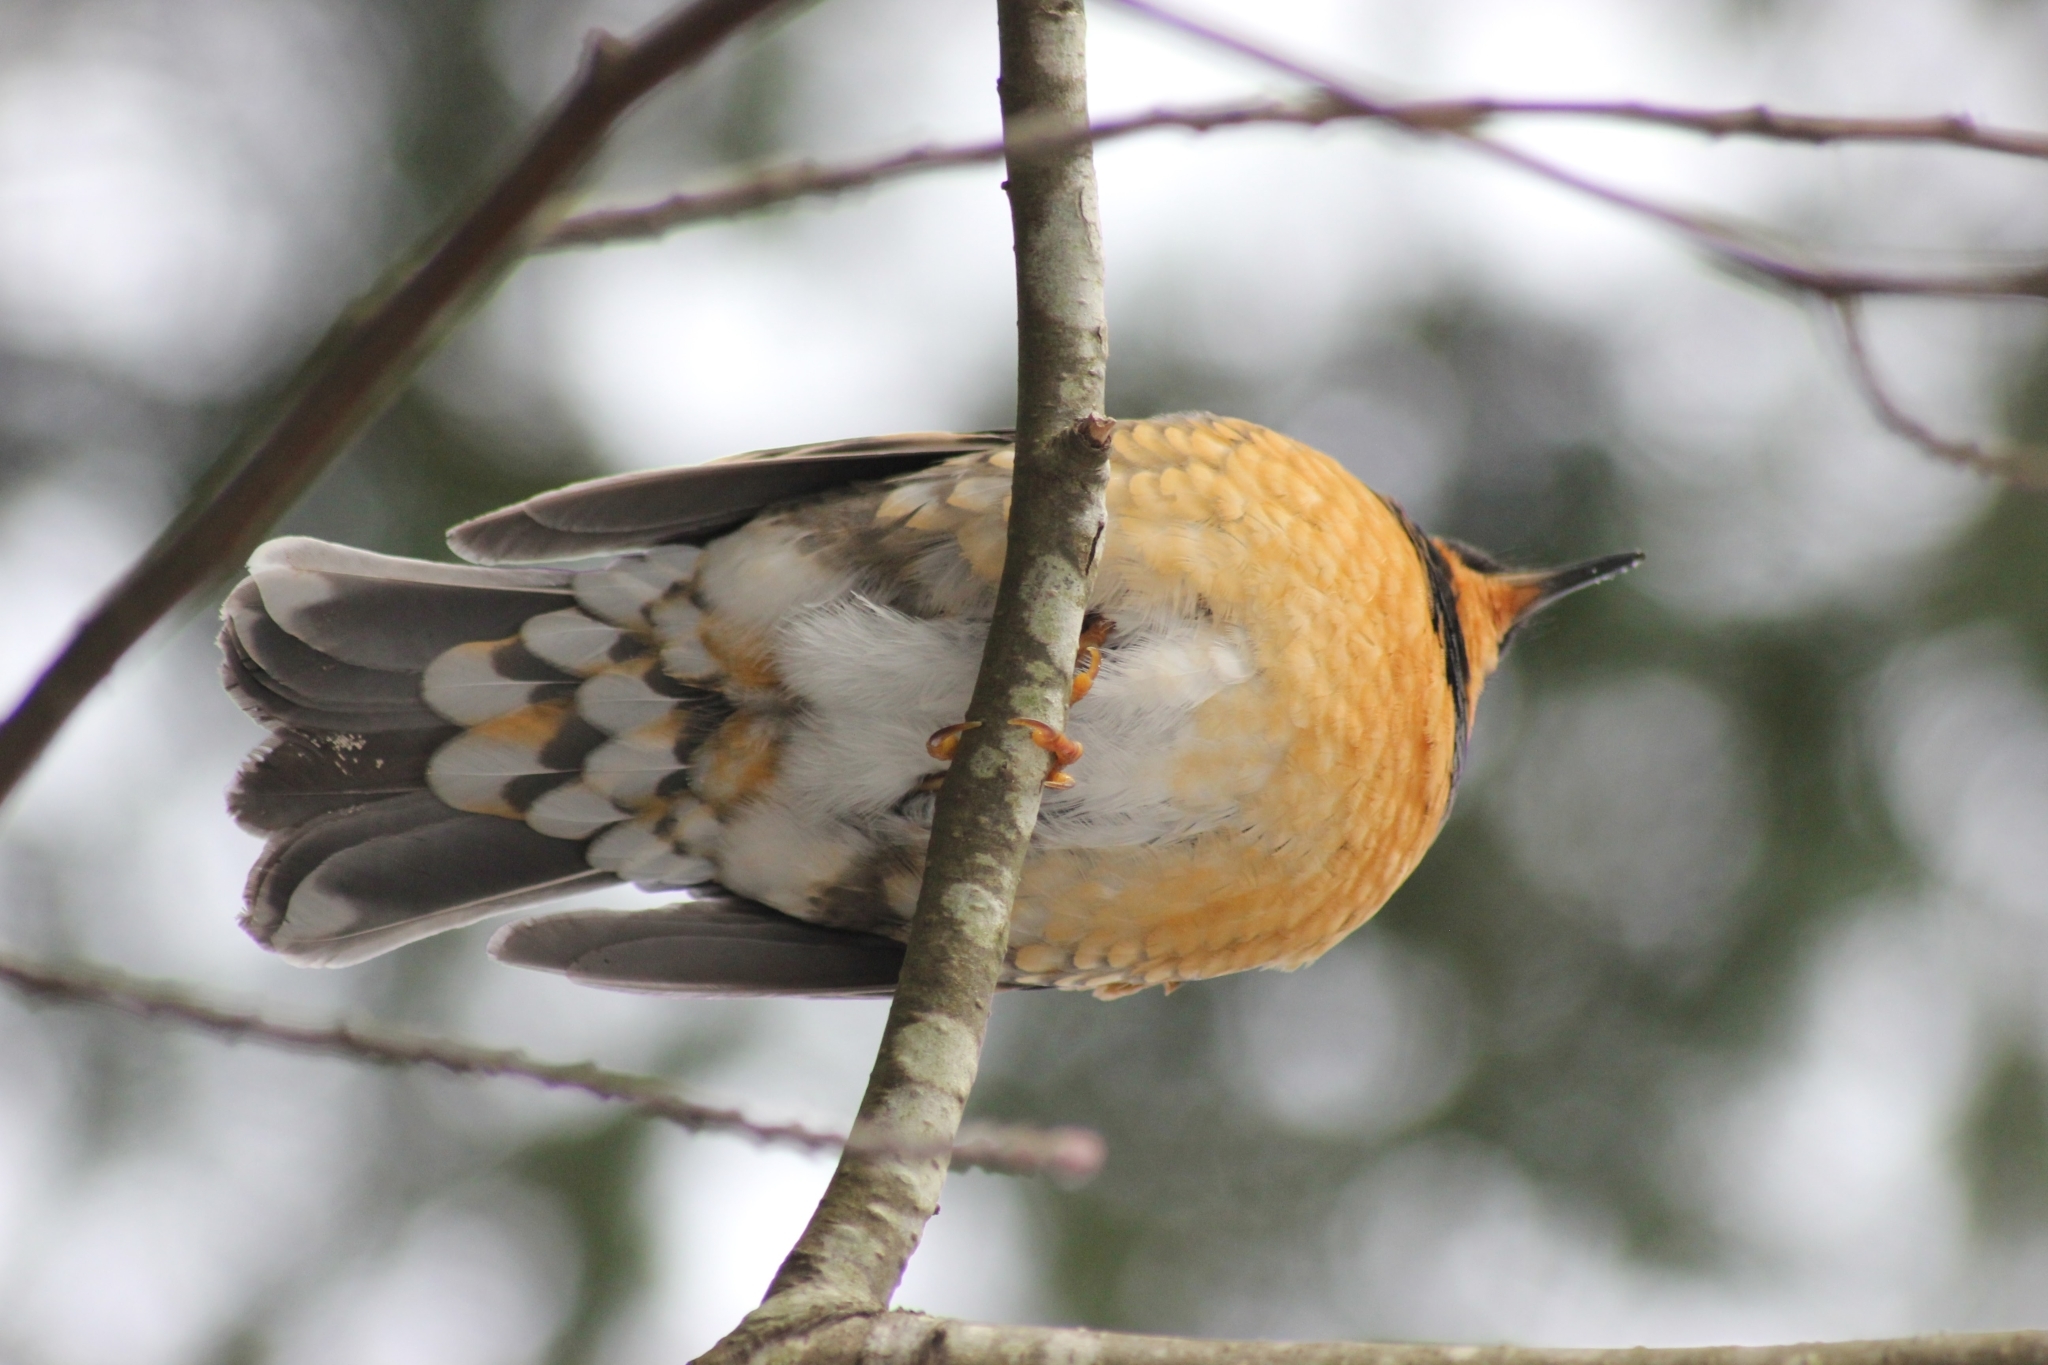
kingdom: Animalia
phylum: Chordata
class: Aves
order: Passeriformes
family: Turdidae
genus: Ixoreus
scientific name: Ixoreus naevius
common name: Varied thrush
